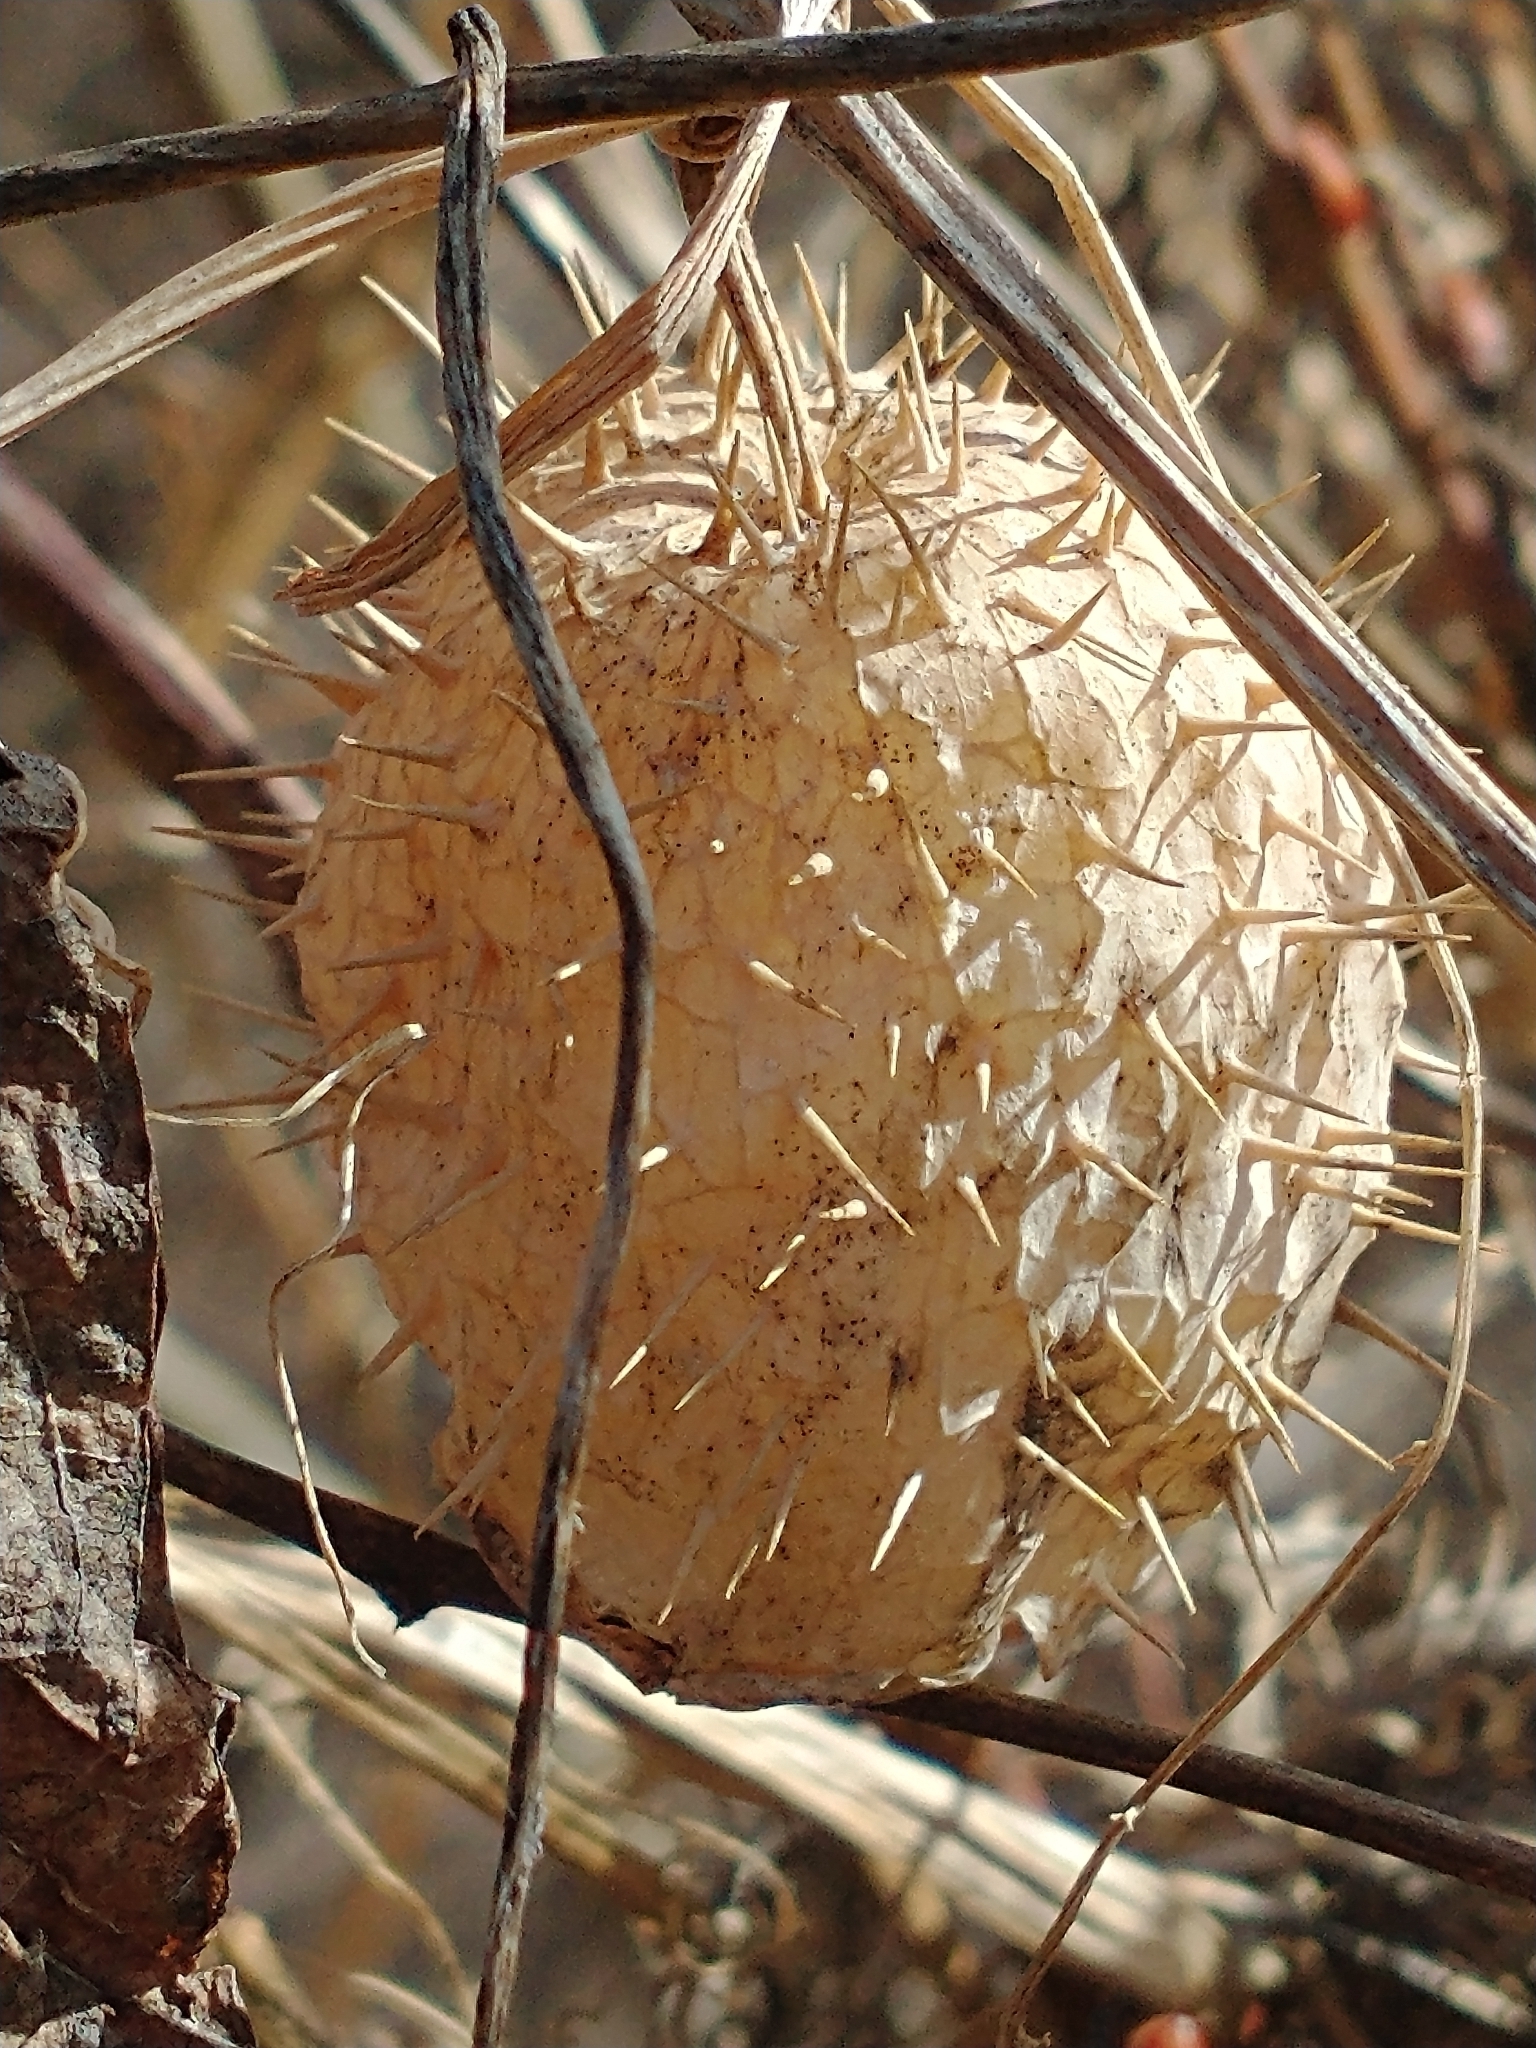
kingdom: Plantae
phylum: Tracheophyta
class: Magnoliopsida
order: Cucurbitales
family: Cucurbitaceae
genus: Echinocystis
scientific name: Echinocystis lobata
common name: Wild cucumber
